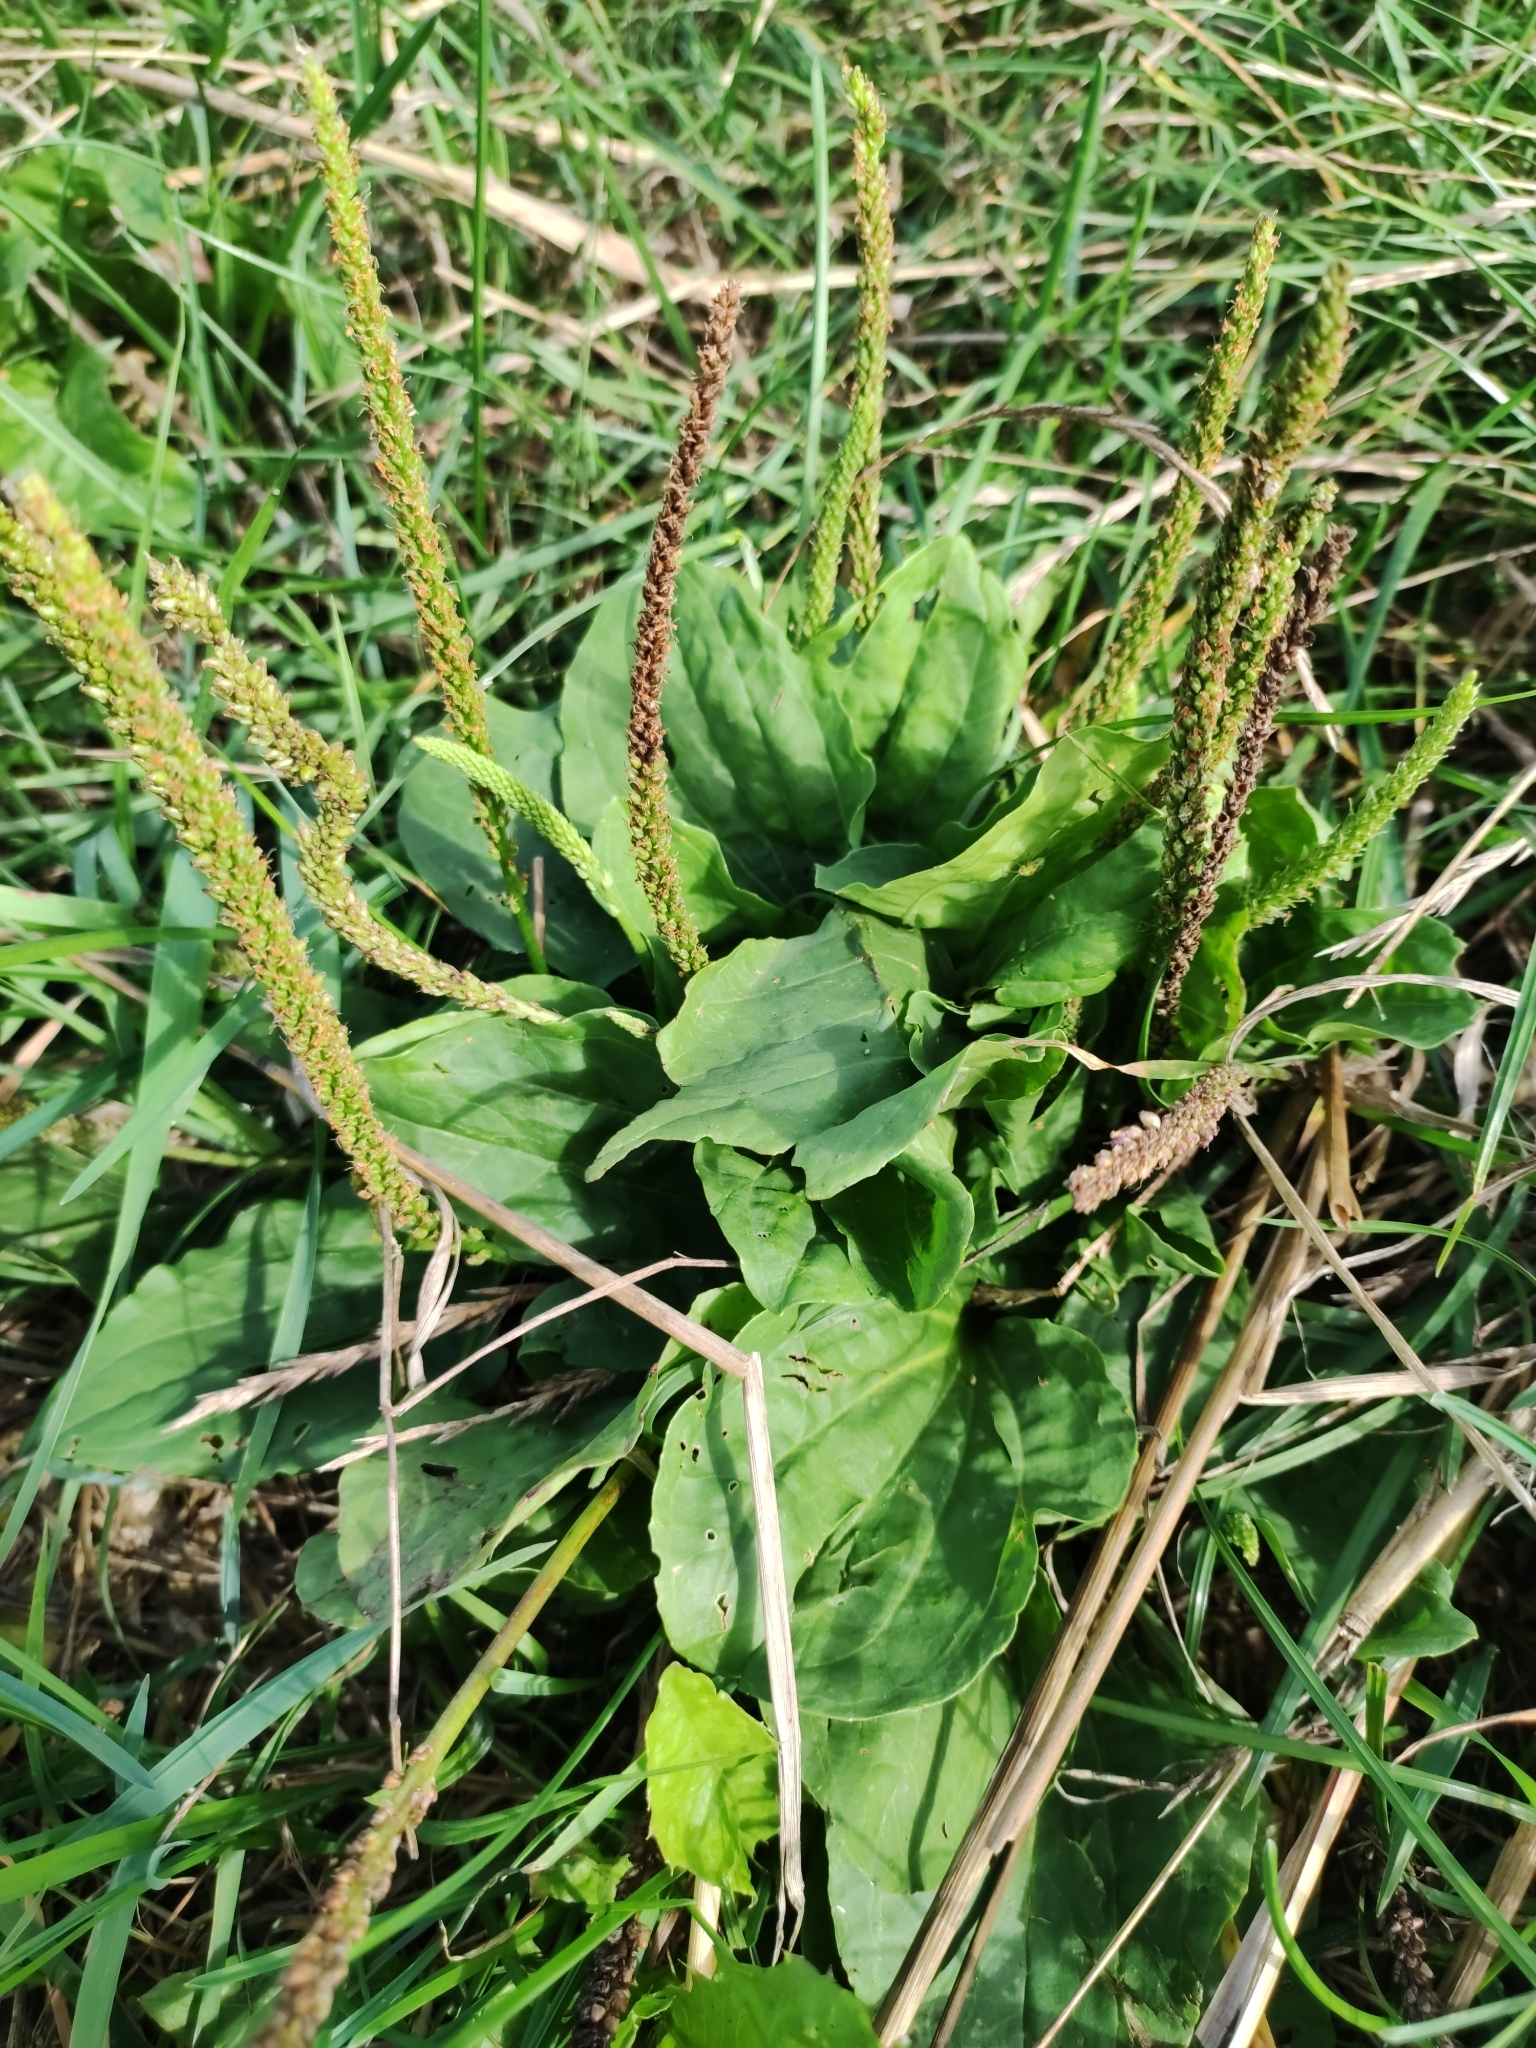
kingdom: Plantae
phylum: Tracheophyta
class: Magnoliopsida
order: Lamiales
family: Plantaginaceae
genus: Plantago
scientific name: Plantago major
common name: Common plantain
